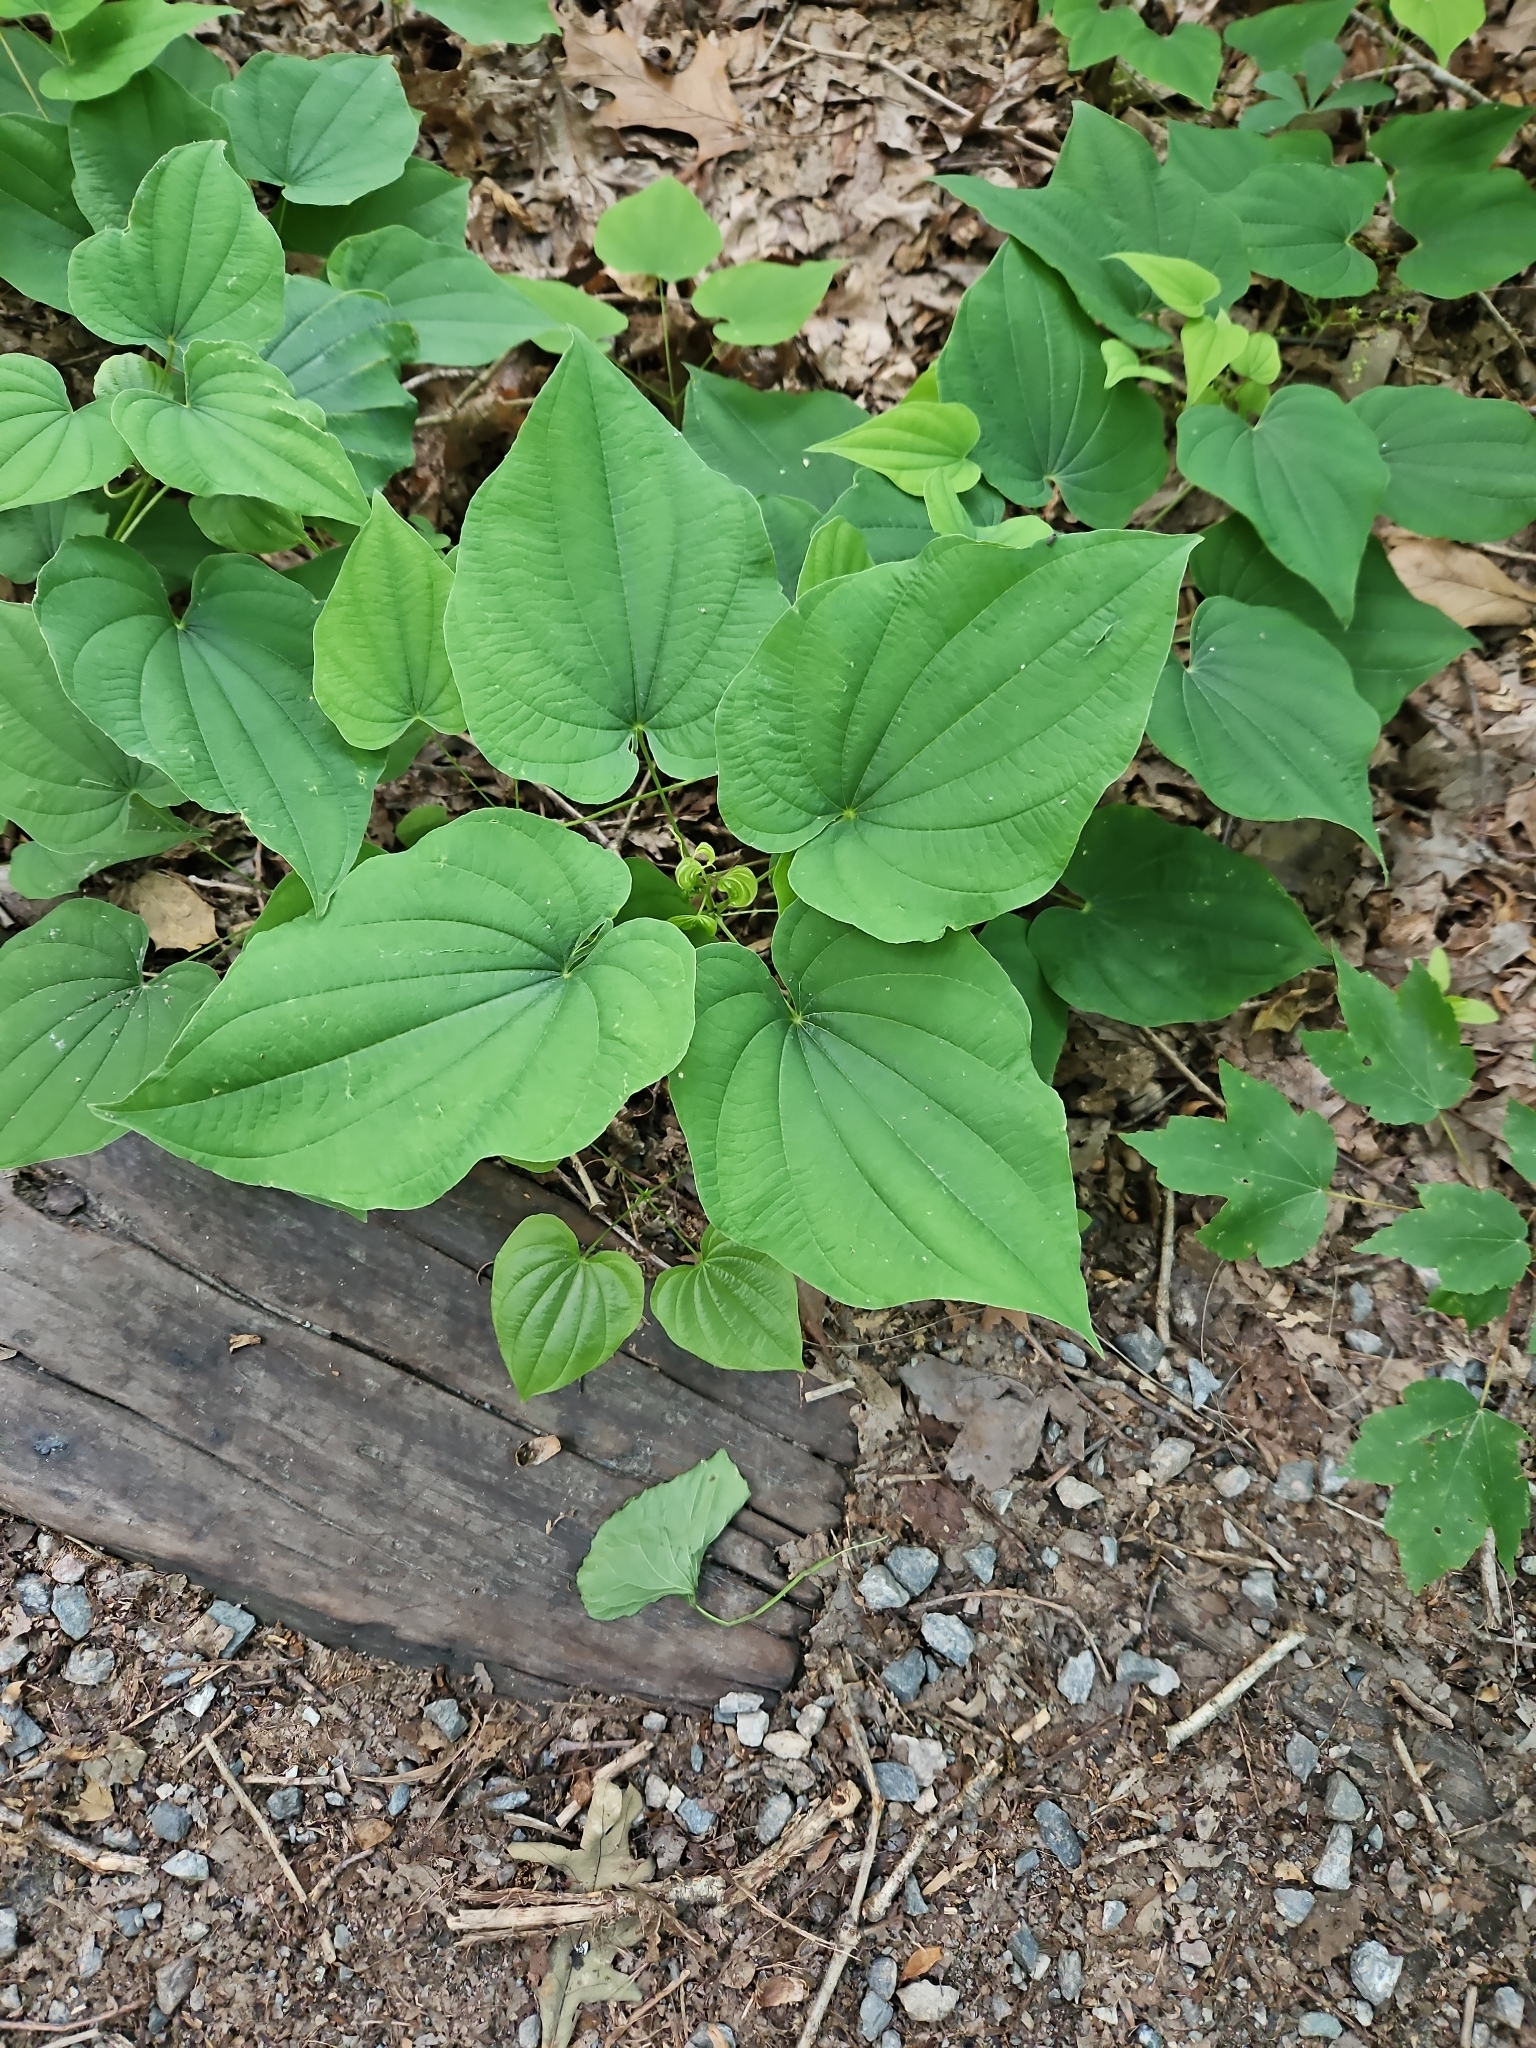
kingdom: Plantae
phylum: Tracheophyta
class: Liliopsida
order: Dioscoreales
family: Dioscoreaceae
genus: Dioscorea
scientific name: Dioscorea villosa
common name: Wild yam
